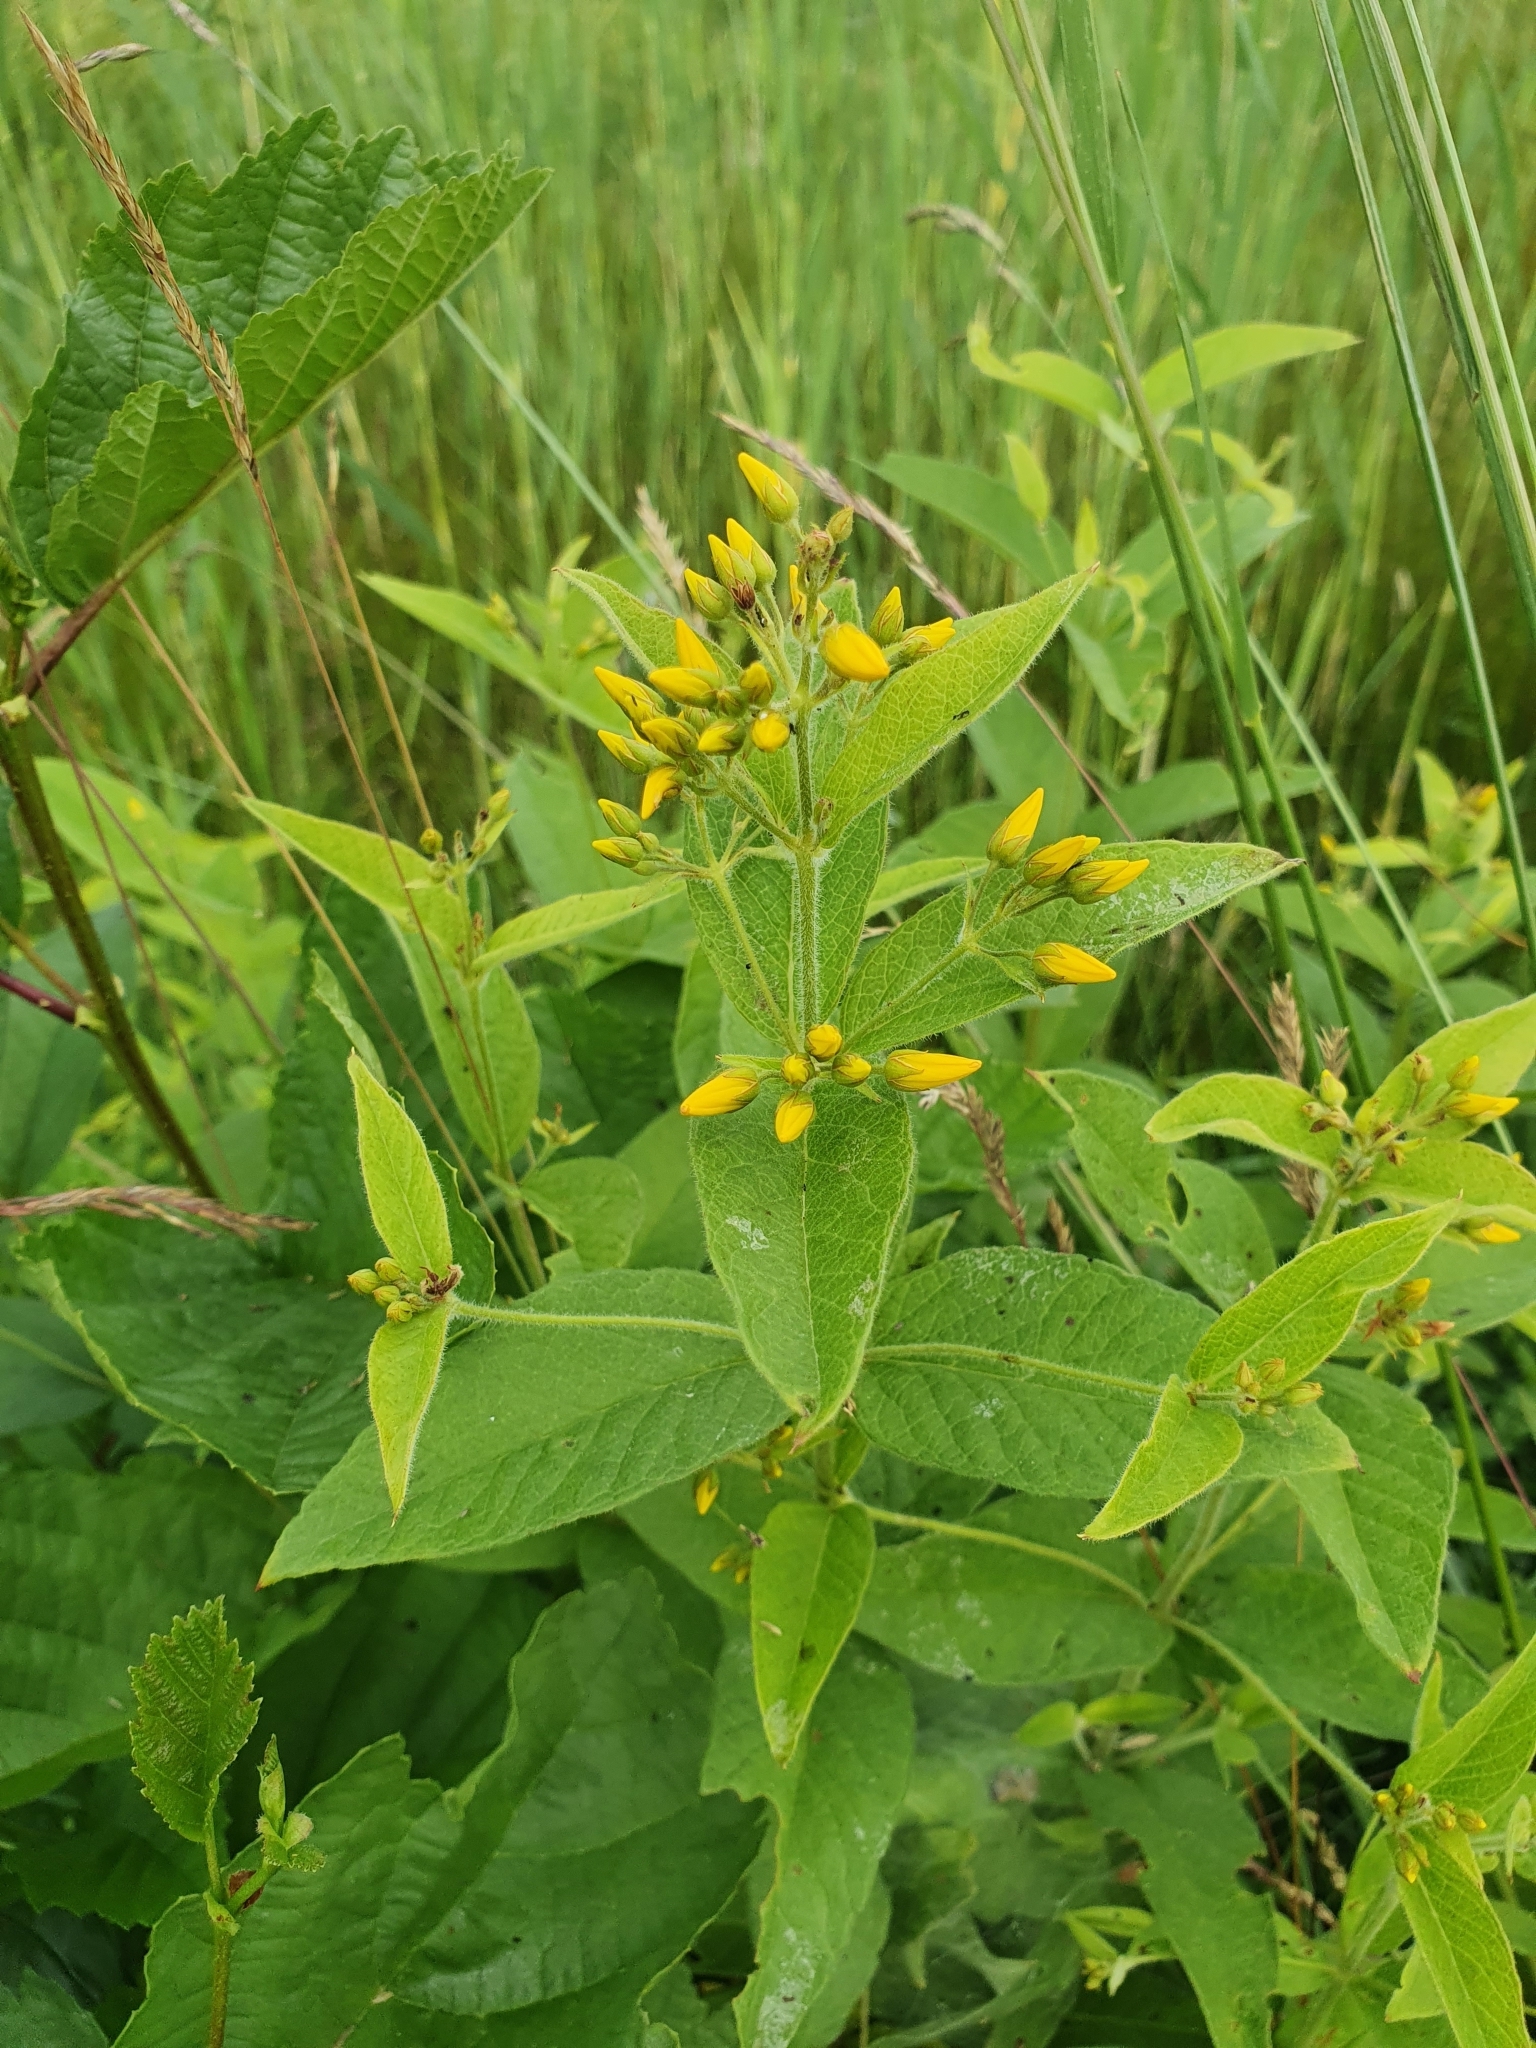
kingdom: Plantae
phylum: Tracheophyta
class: Magnoliopsida
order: Ericales
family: Primulaceae
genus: Lysimachia
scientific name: Lysimachia vulgaris
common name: Yellow loosestrife
